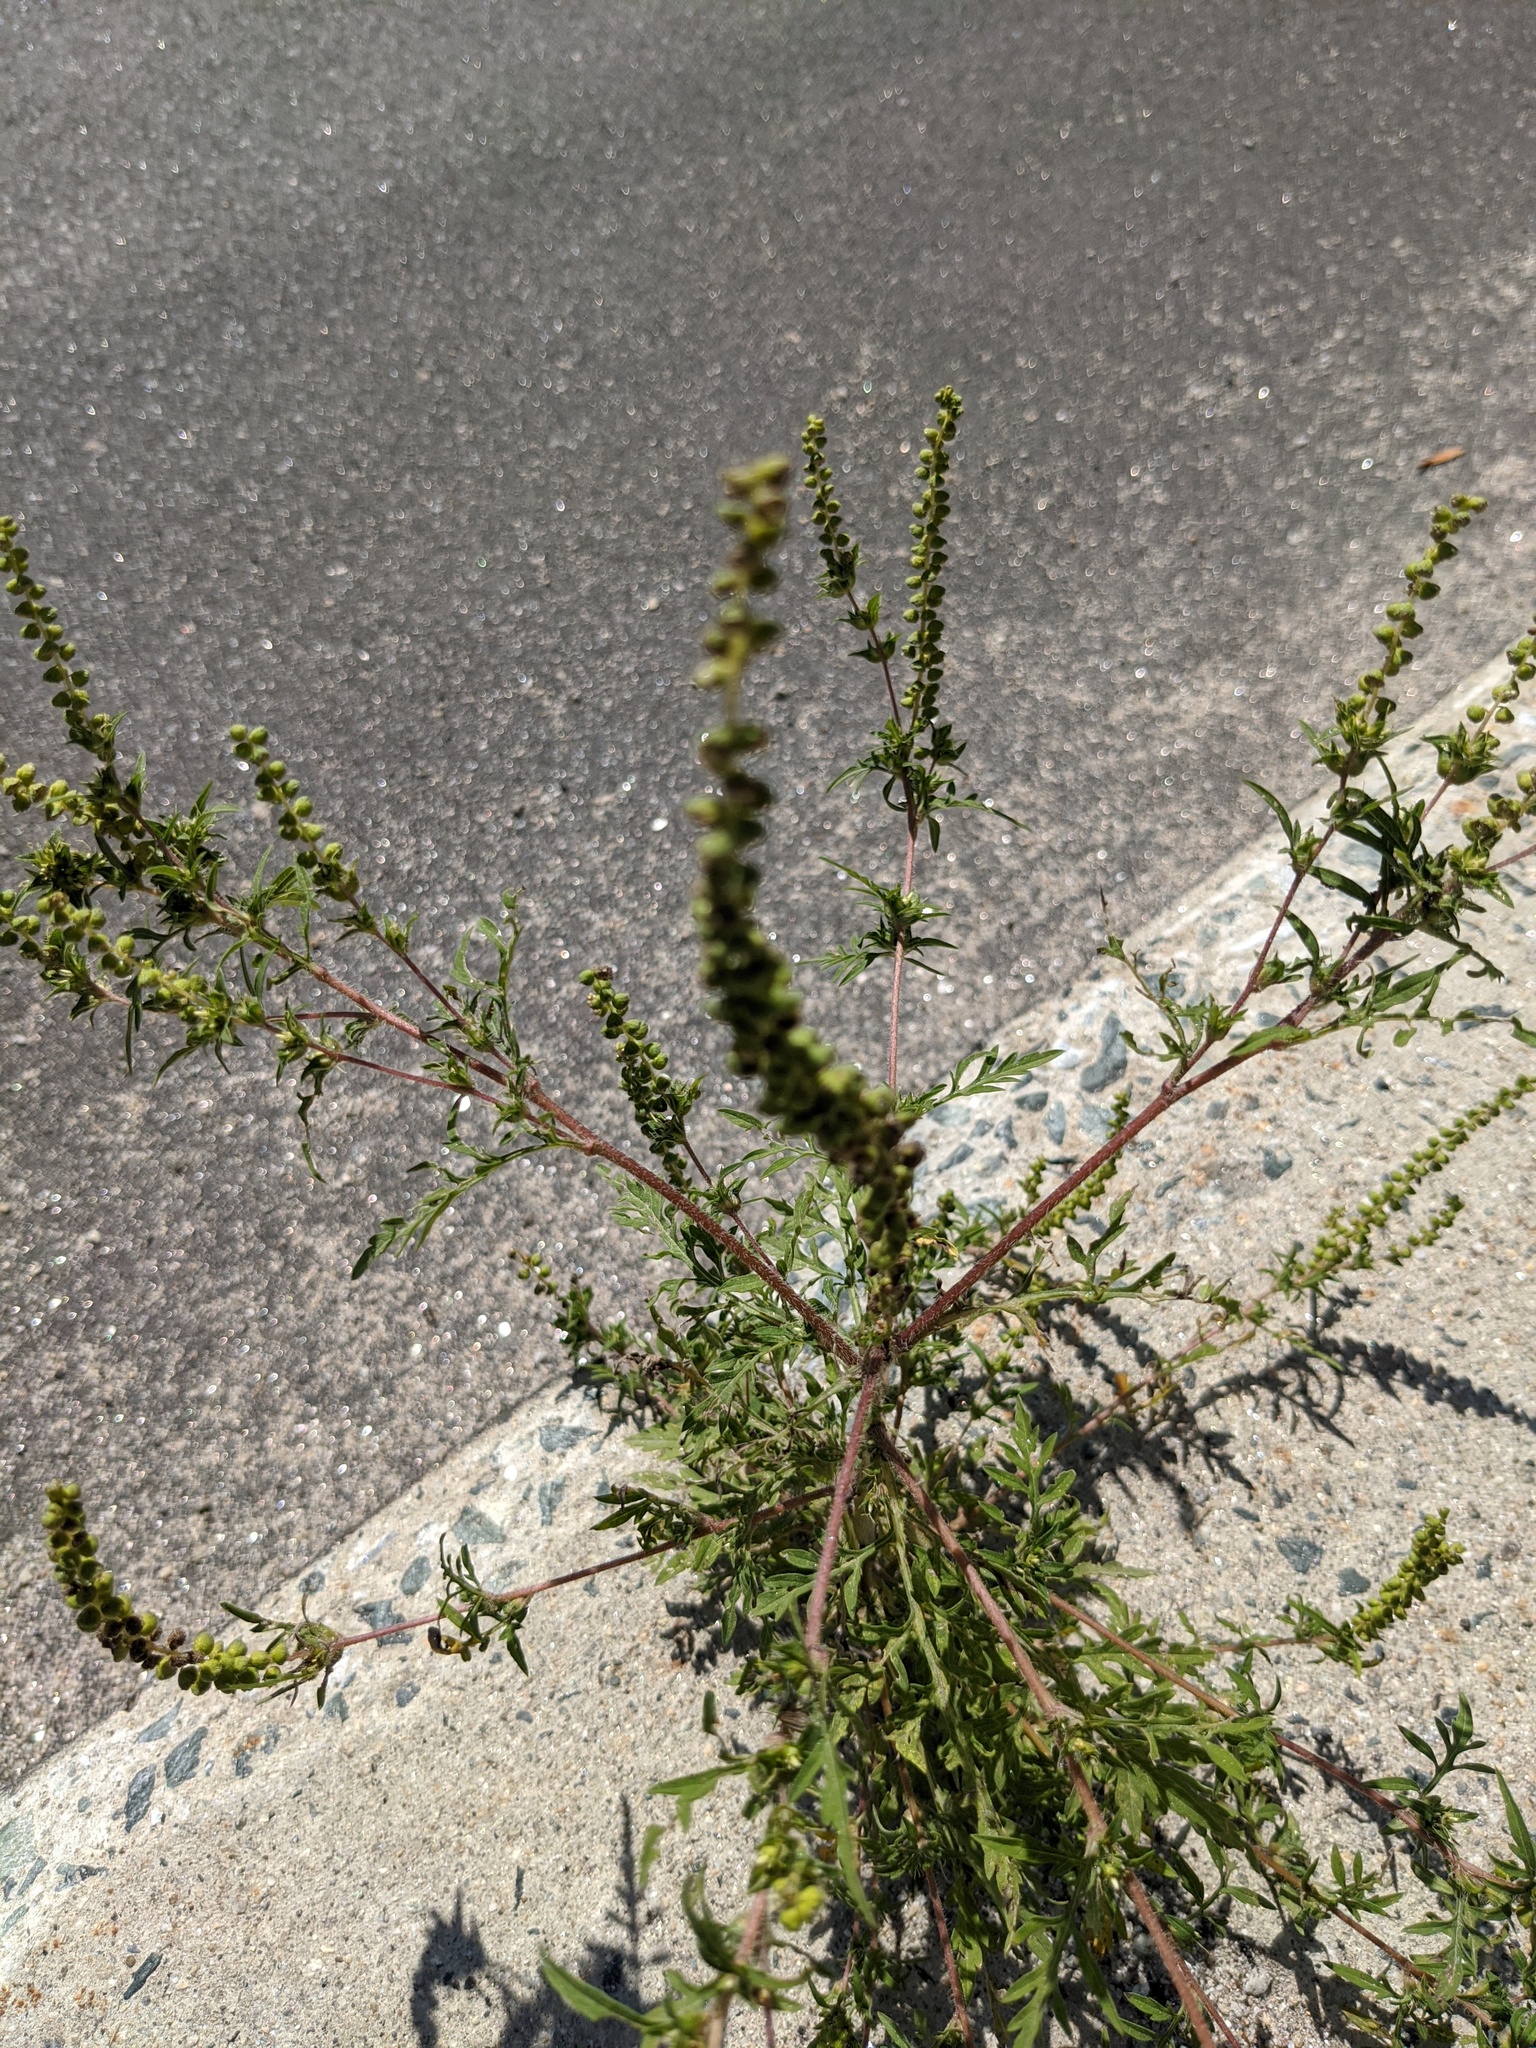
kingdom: Plantae
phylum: Tracheophyta
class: Magnoliopsida
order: Asterales
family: Asteraceae
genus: Ambrosia
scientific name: Ambrosia artemisiifolia
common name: Annual ragweed
